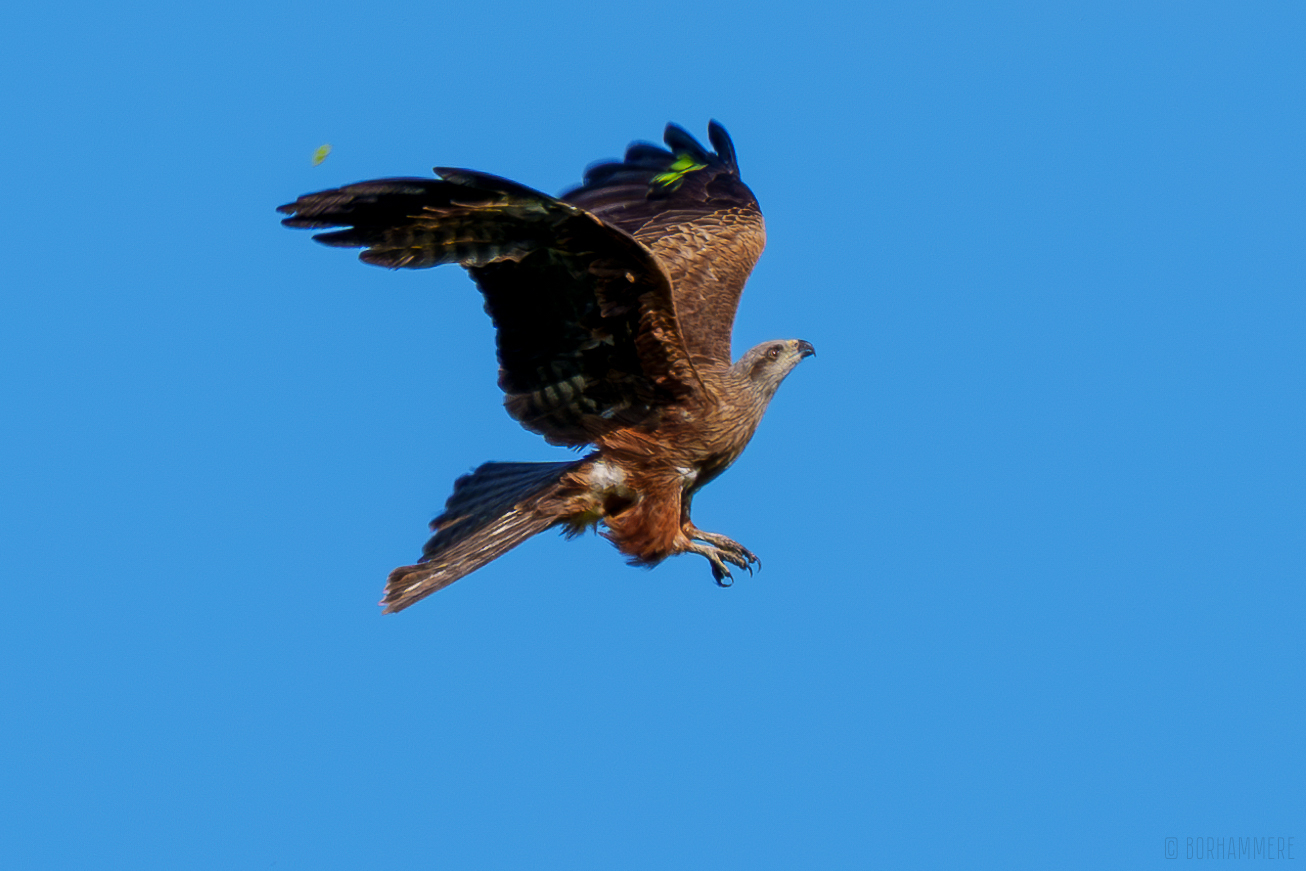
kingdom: Animalia
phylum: Chordata
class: Aves
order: Accipitriformes
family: Accipitridae
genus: Milvus
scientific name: Milvus migrans
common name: Black kite
